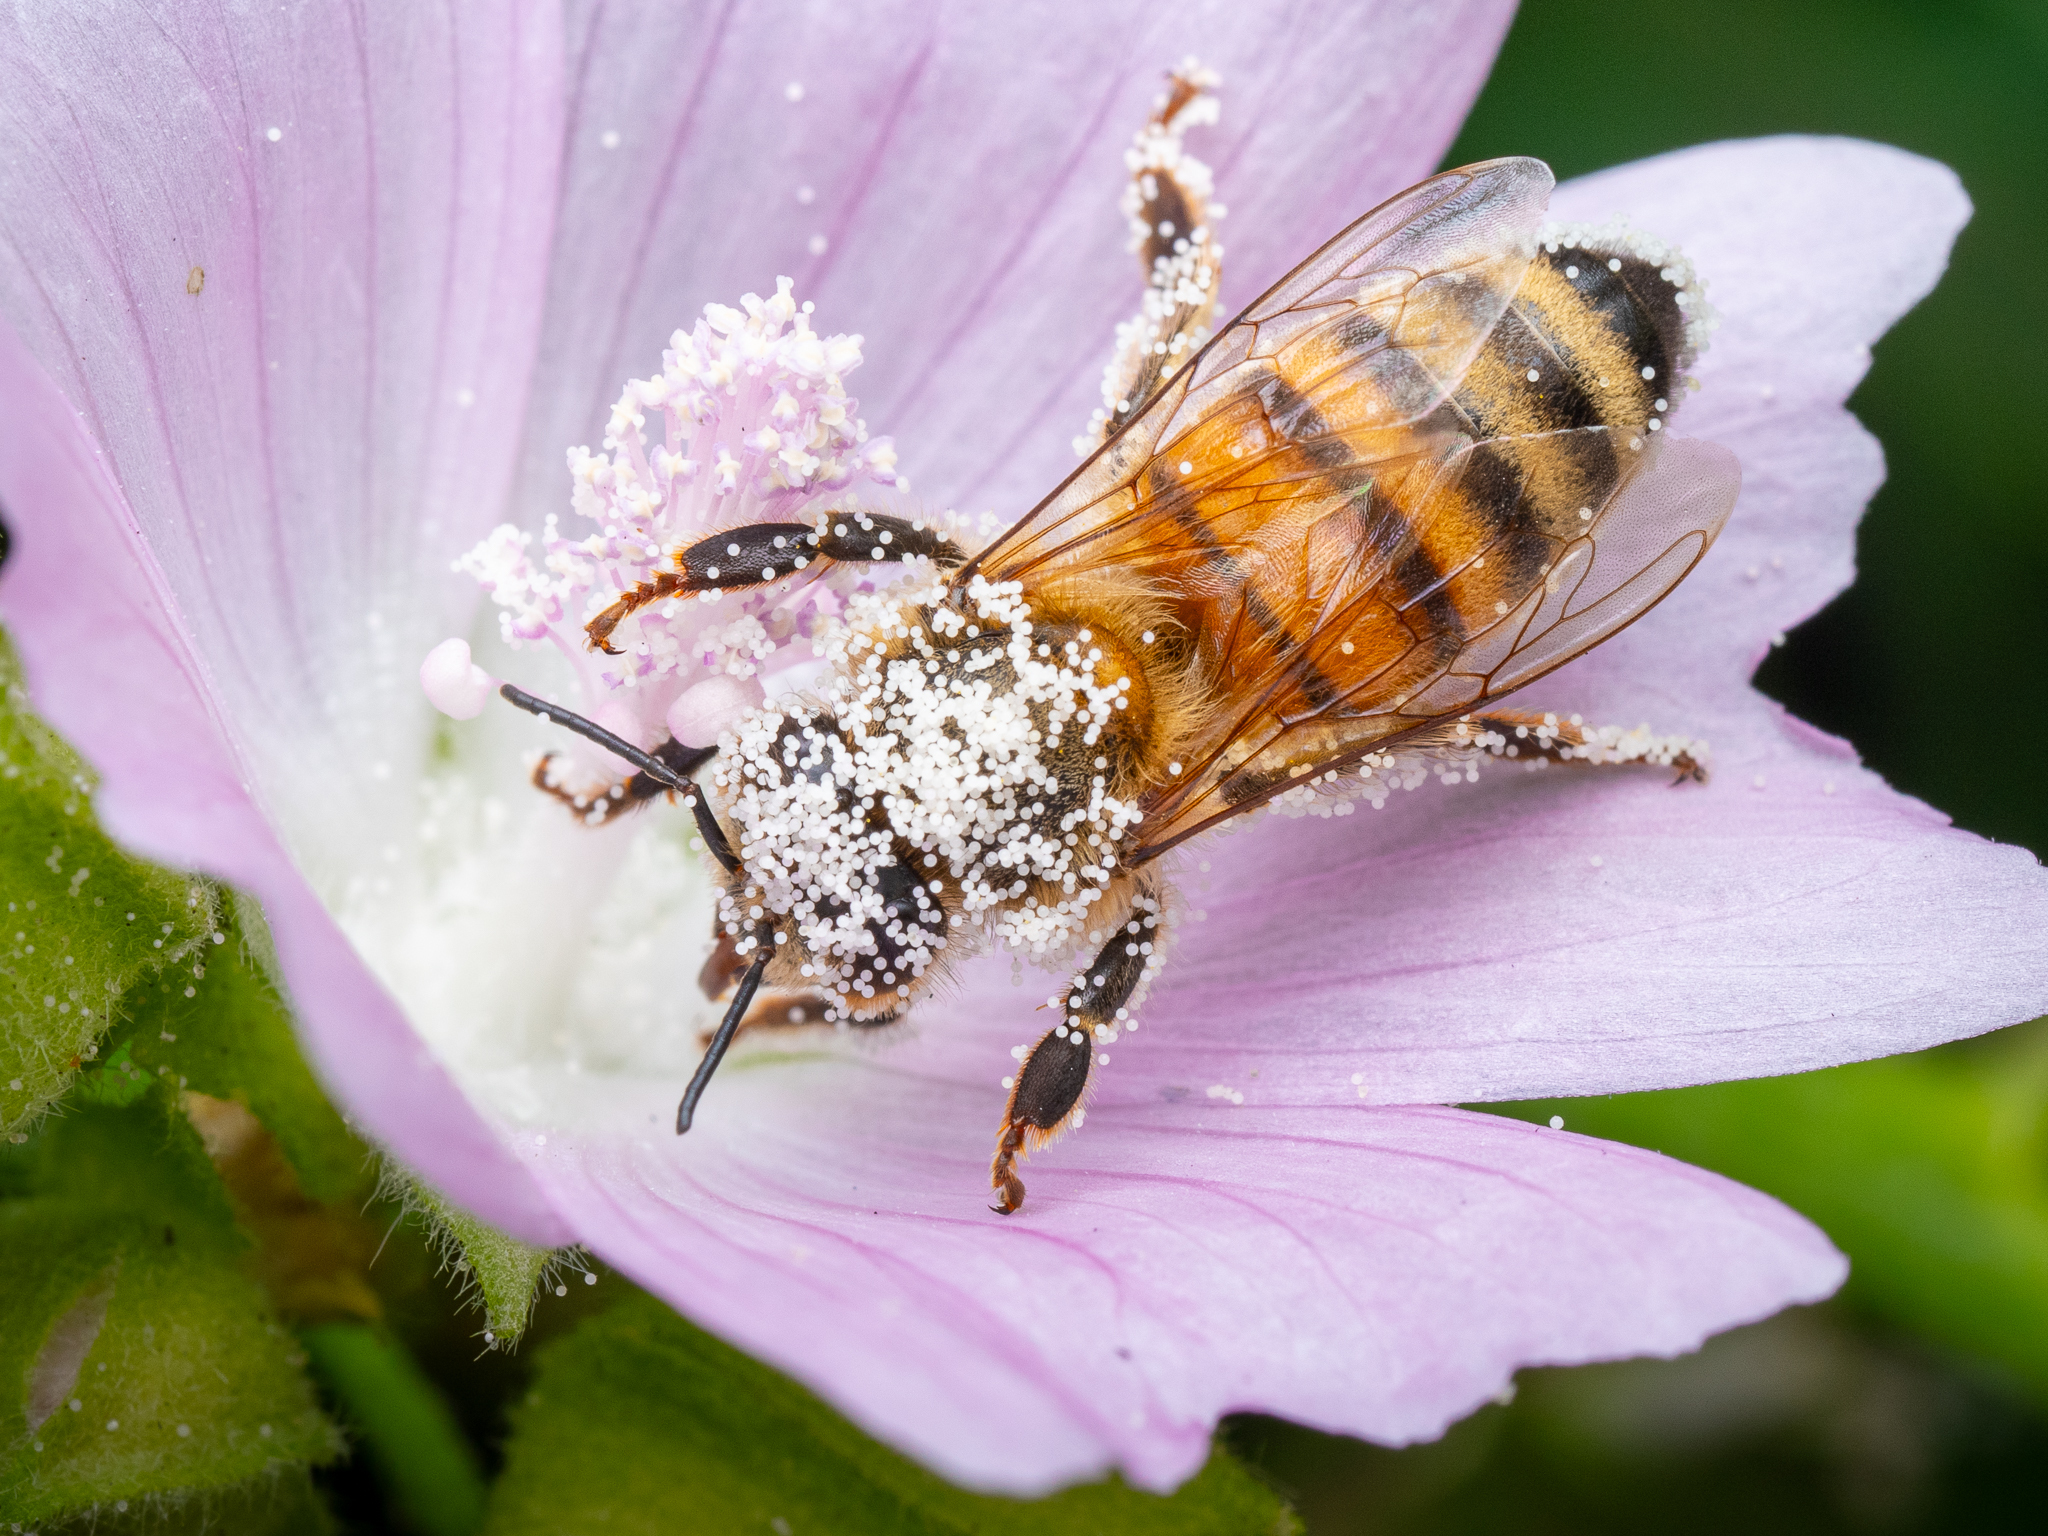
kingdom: Animalia
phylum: Arthropoda
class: Insecta
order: Hymenoptera
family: Apidae
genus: Apis
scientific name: Apis mellifera
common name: Honey bee
